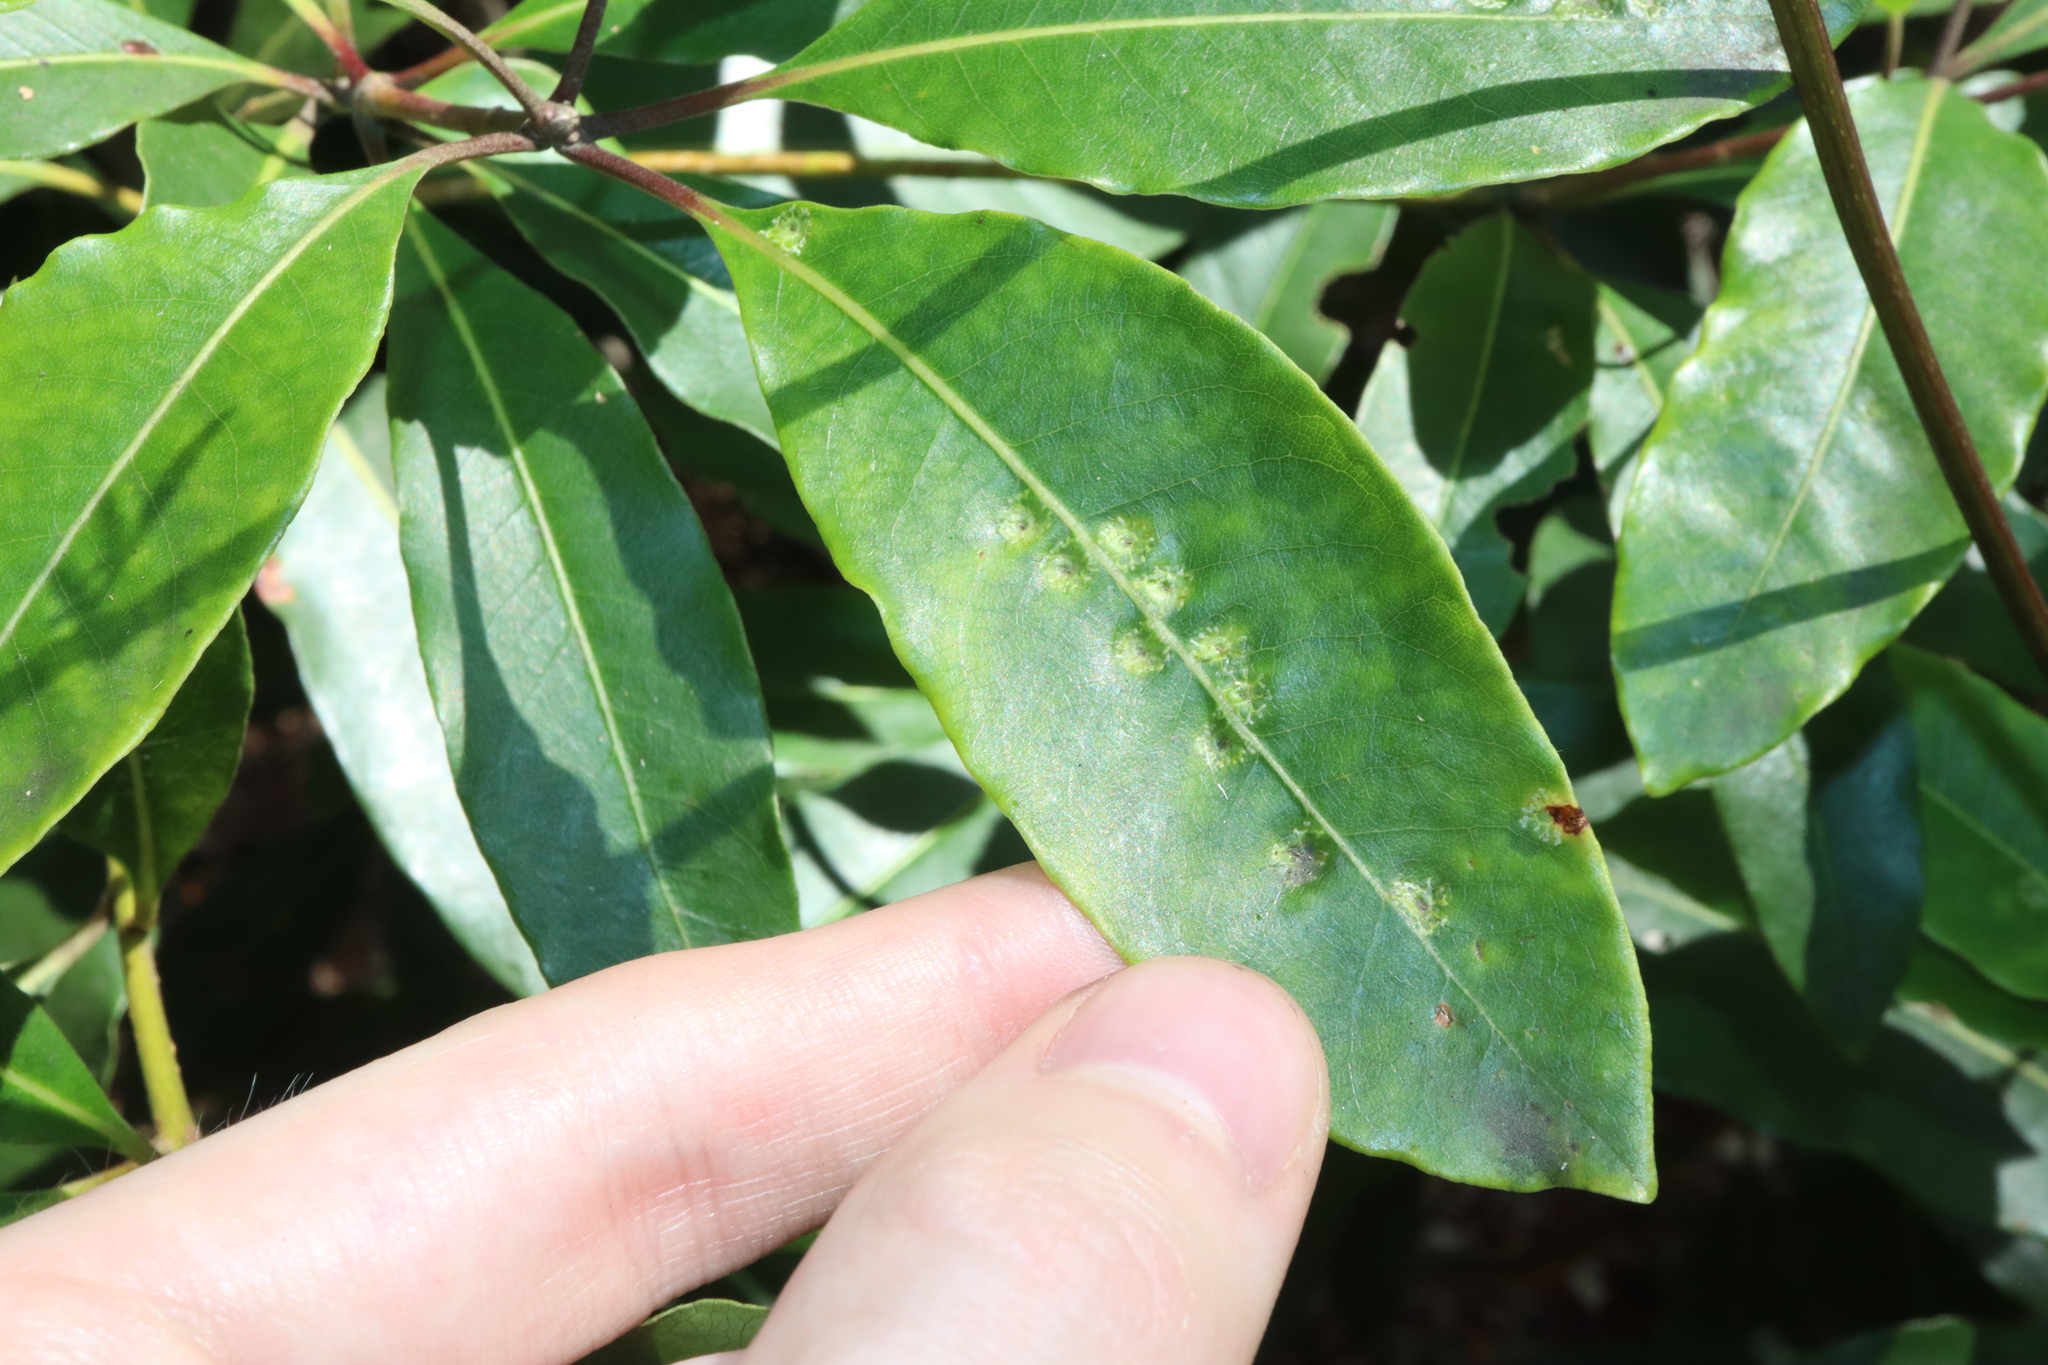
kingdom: Animalia
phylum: Arthropoda
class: Insecta
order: Diptera
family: Agromyzidae
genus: Phytoliriomyza
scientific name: Phytoliriomyza pittosporophylli
